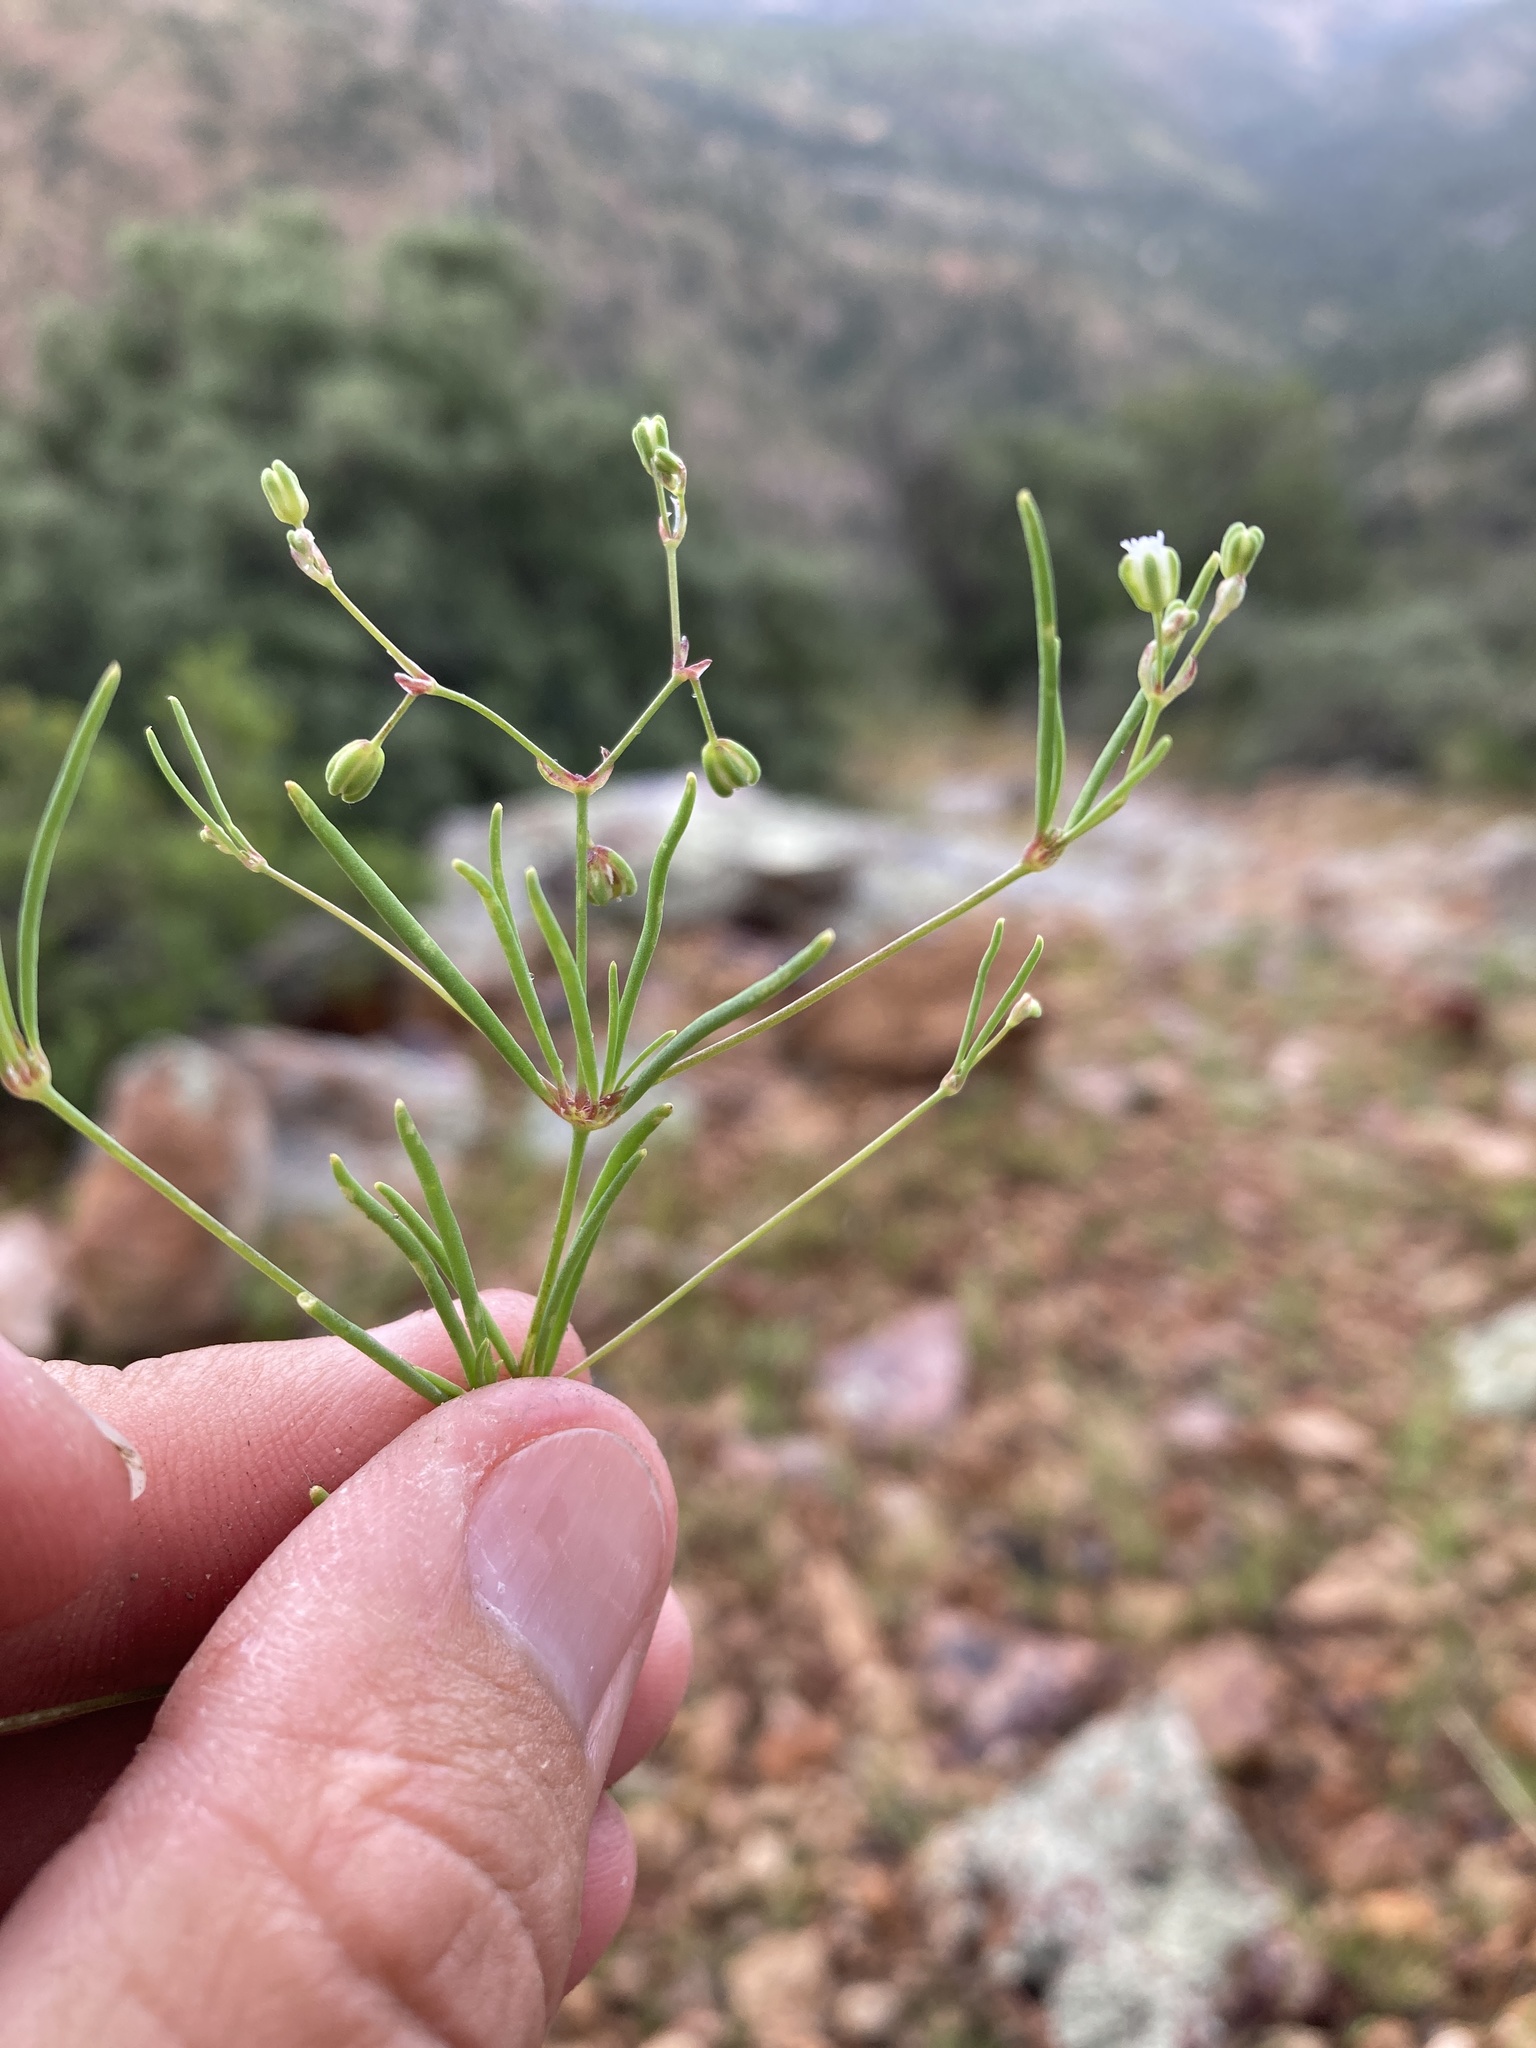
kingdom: Plantae
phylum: Tracheophyta
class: Magnoliopsida
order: Caryophyllales
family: Caryophyllaceae
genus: Drymaria
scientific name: Drymaria molluginea
